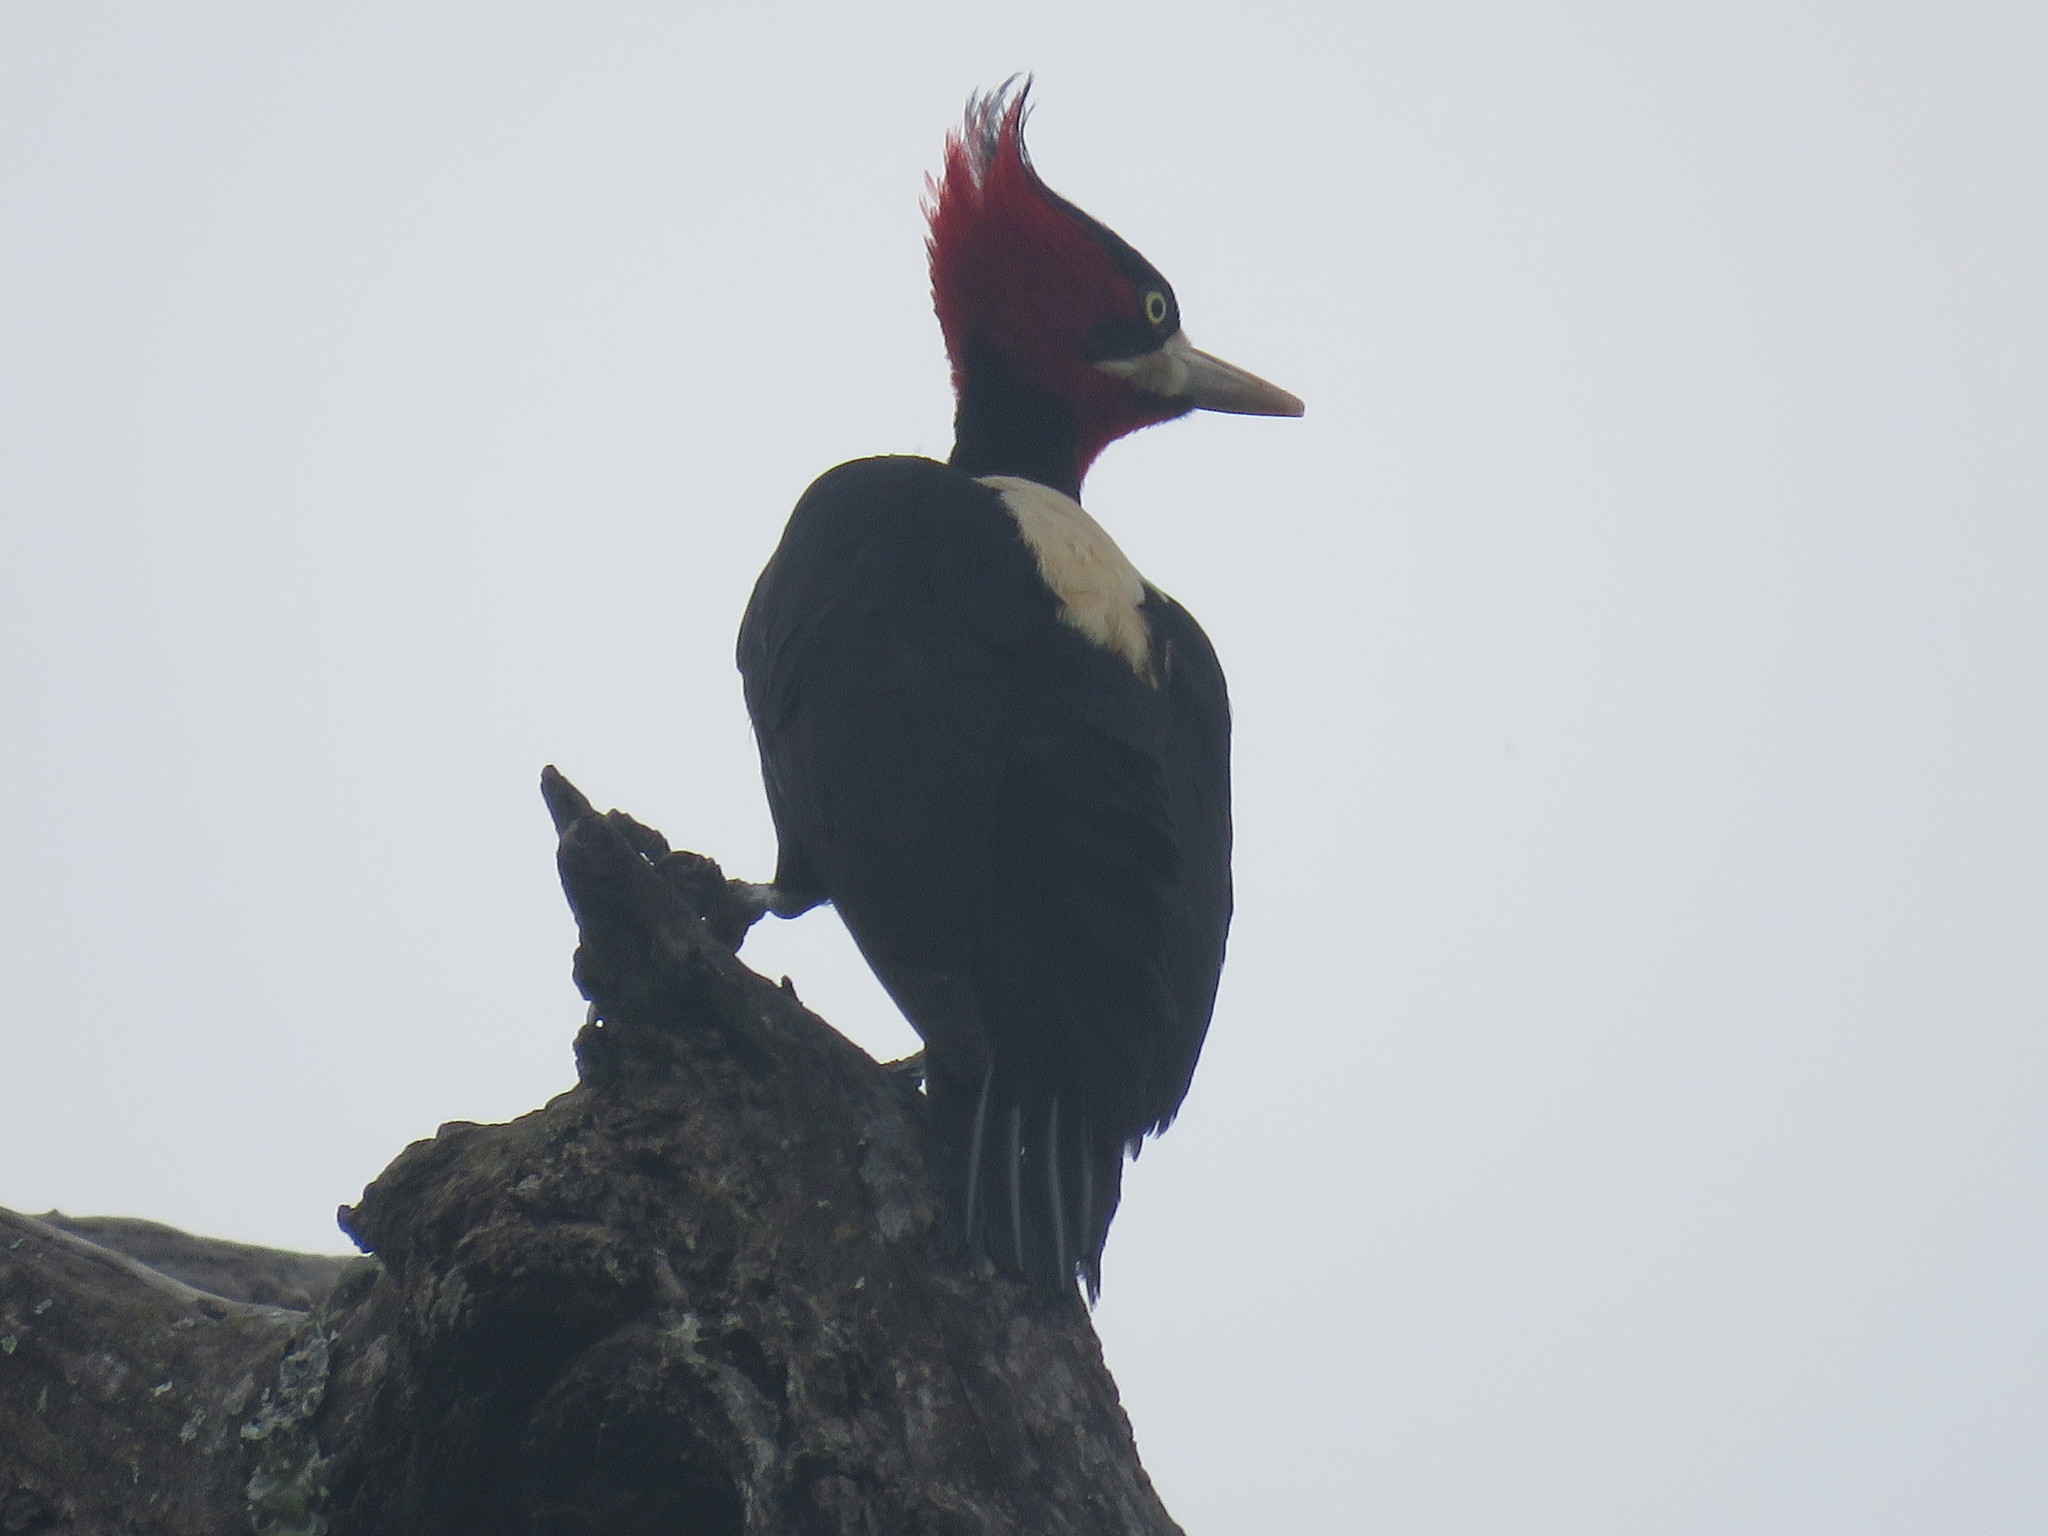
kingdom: Animalia
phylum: Chordata
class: Aves
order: Piciformes
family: Picidae
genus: Campephilus
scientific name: Campephilus leucopogon
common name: Cream-backed woodpecker
